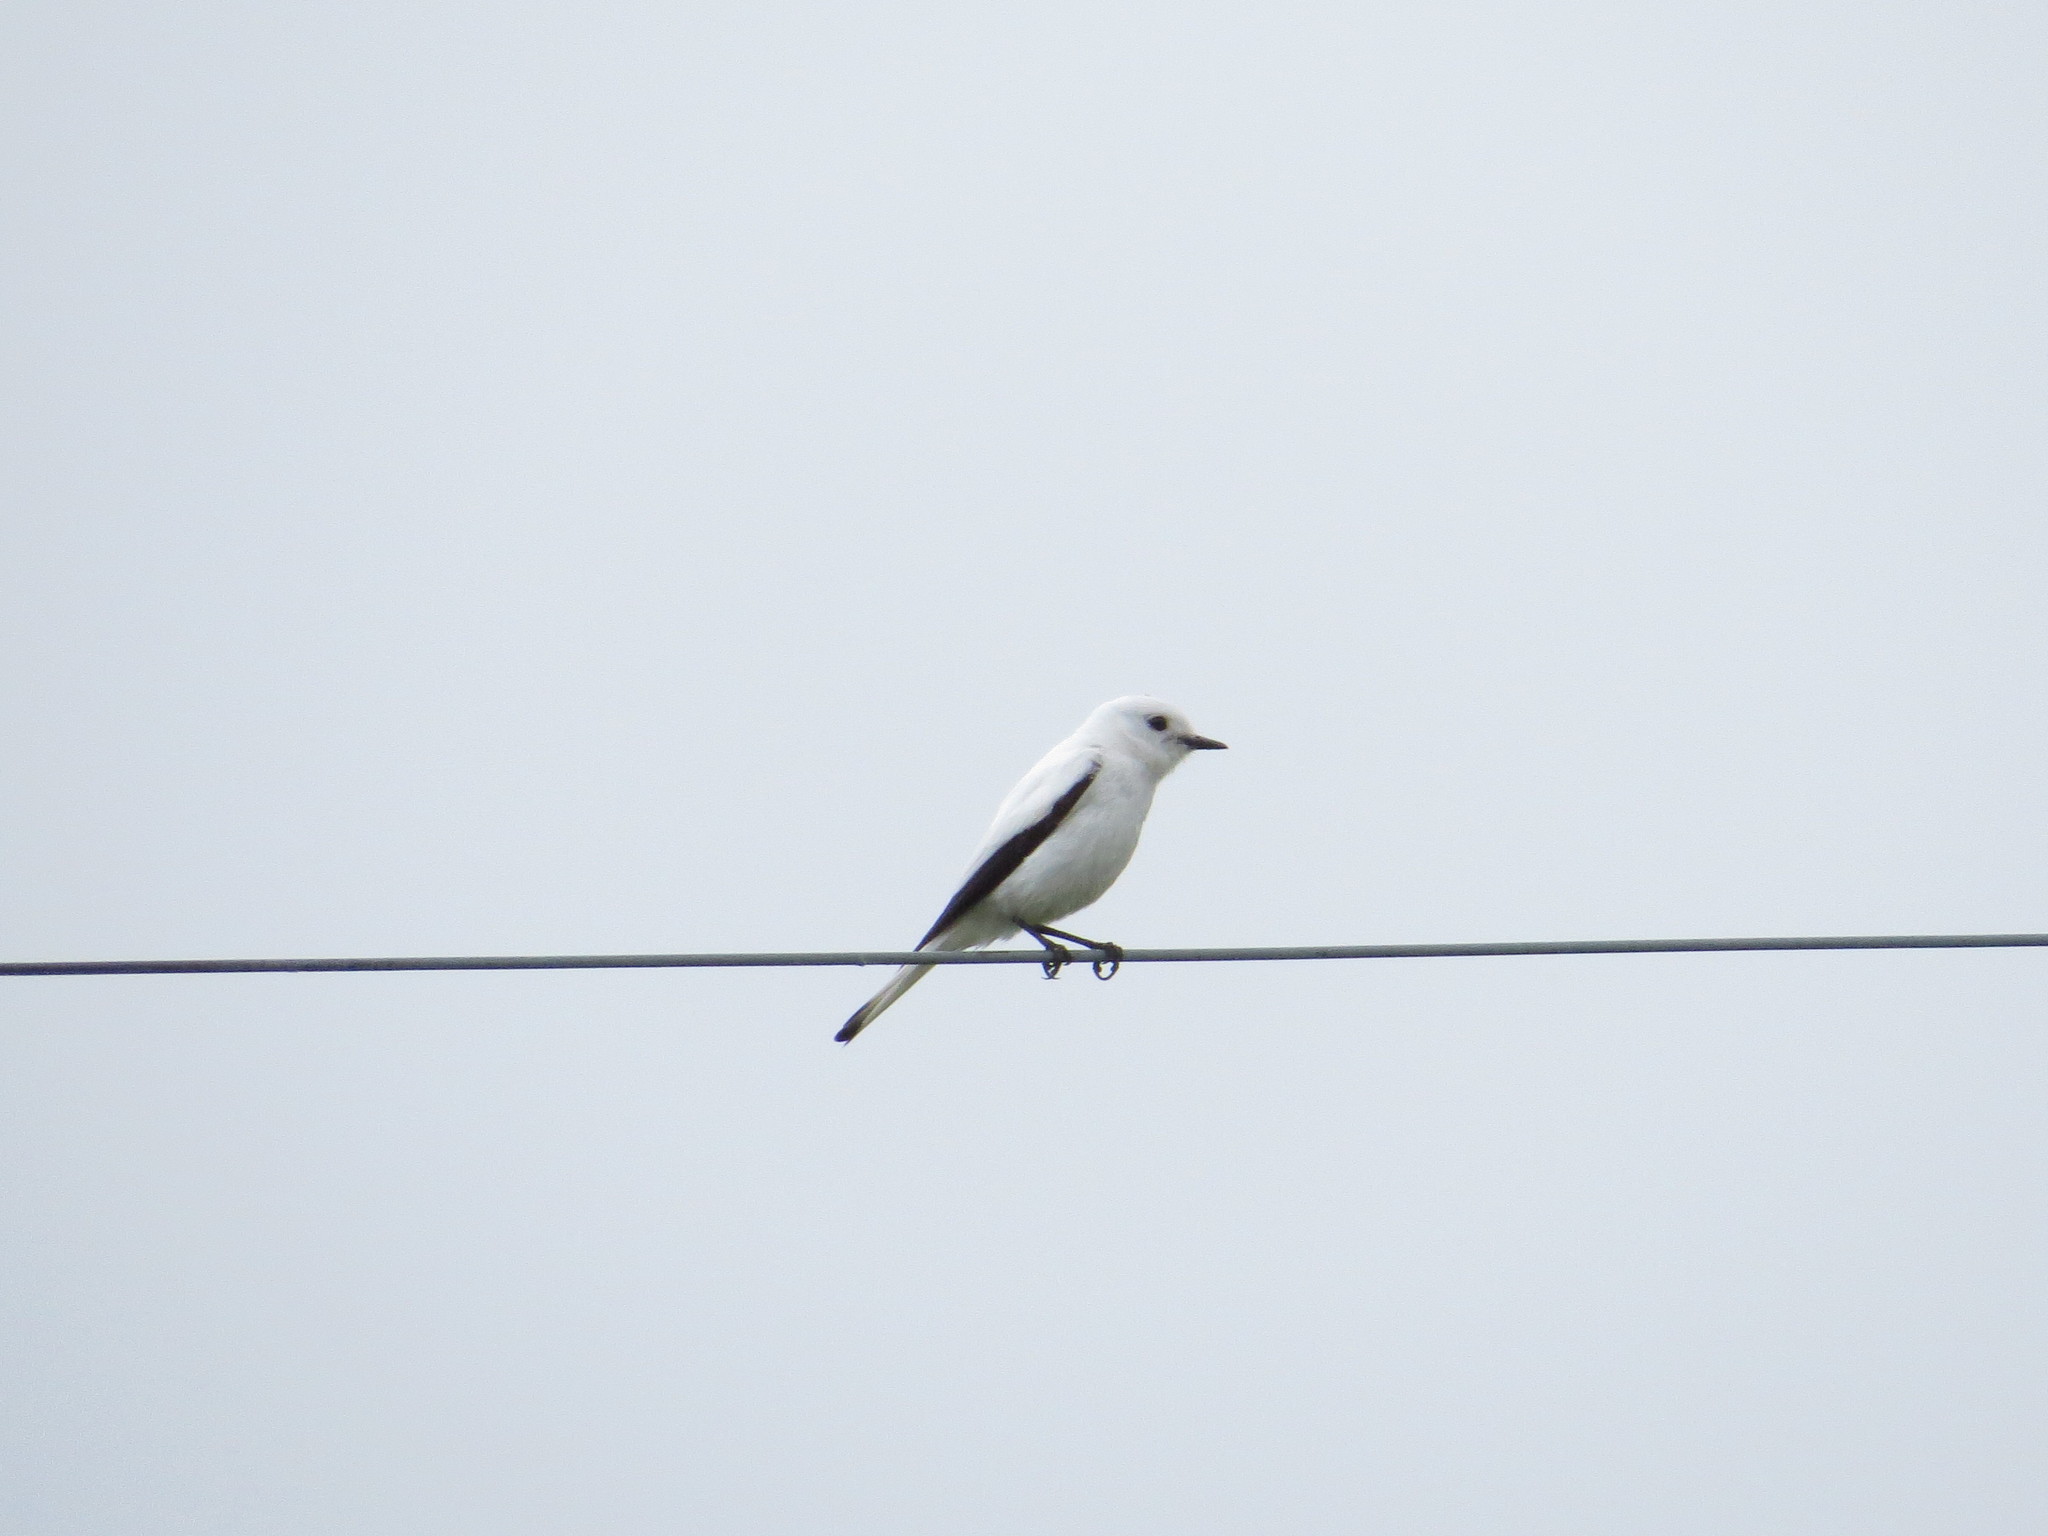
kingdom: Animalia
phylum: Chordata
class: Aves
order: Passeriformes
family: Tyrannidae
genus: Xolmis
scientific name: Xolmis irupero
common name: White monjita
